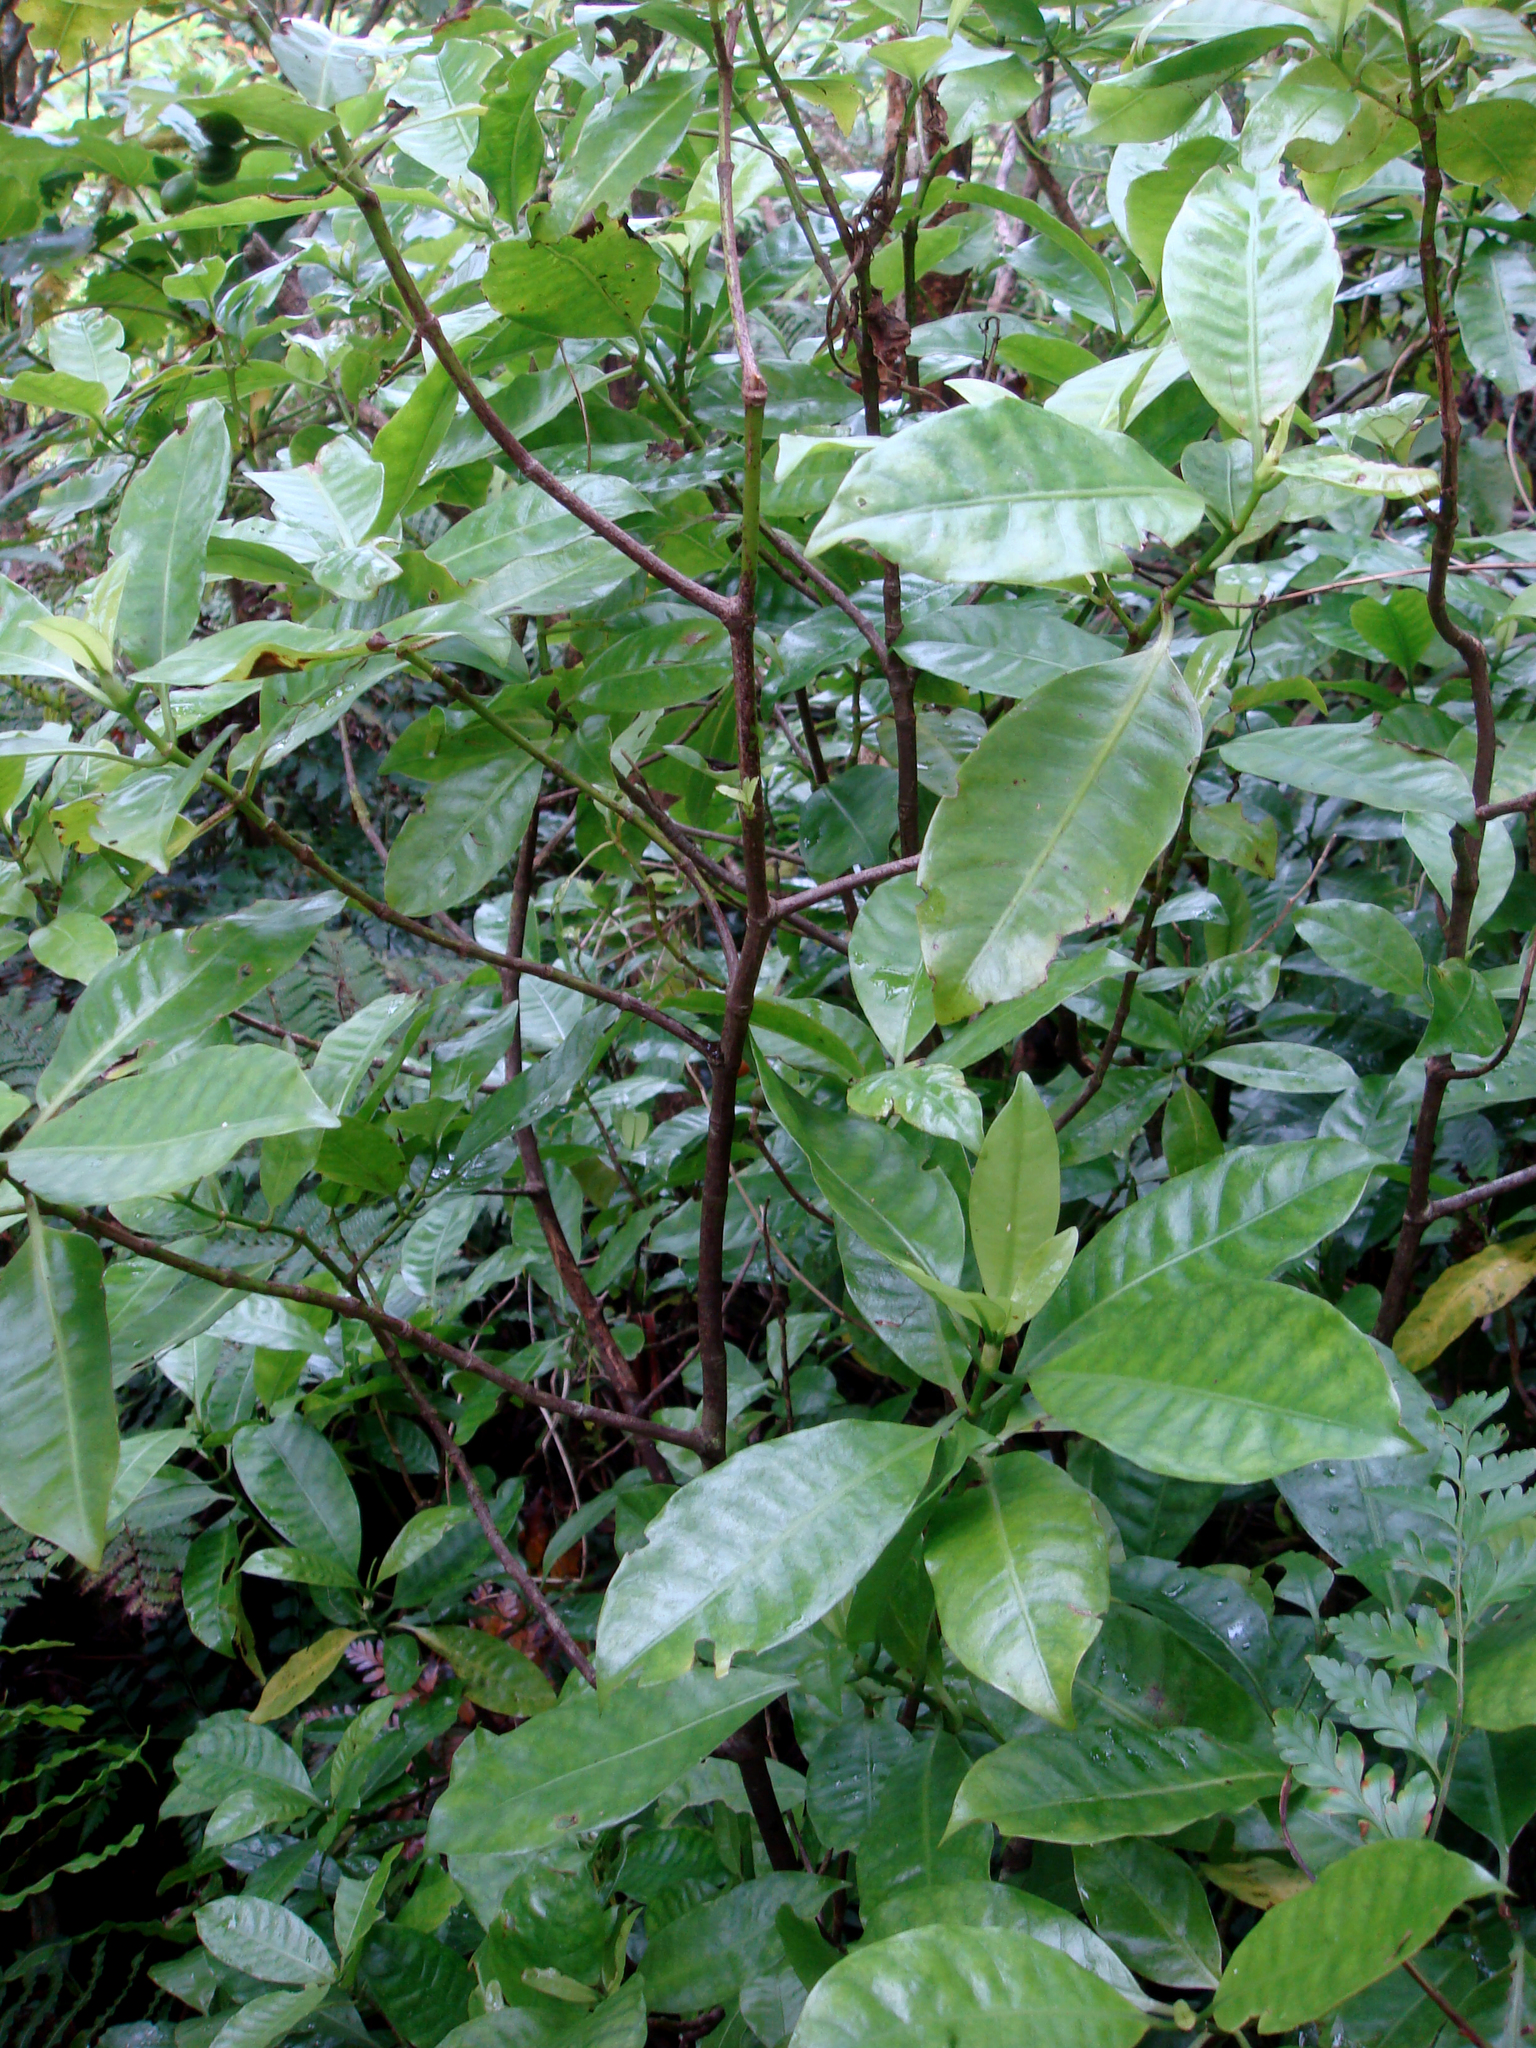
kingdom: Plantae
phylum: Tracheophyta
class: Magnoliopsida
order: Gentianales
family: Rubiaceae
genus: Psychotria
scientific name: Psychotria whistleri
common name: Rarotonga psychotria
